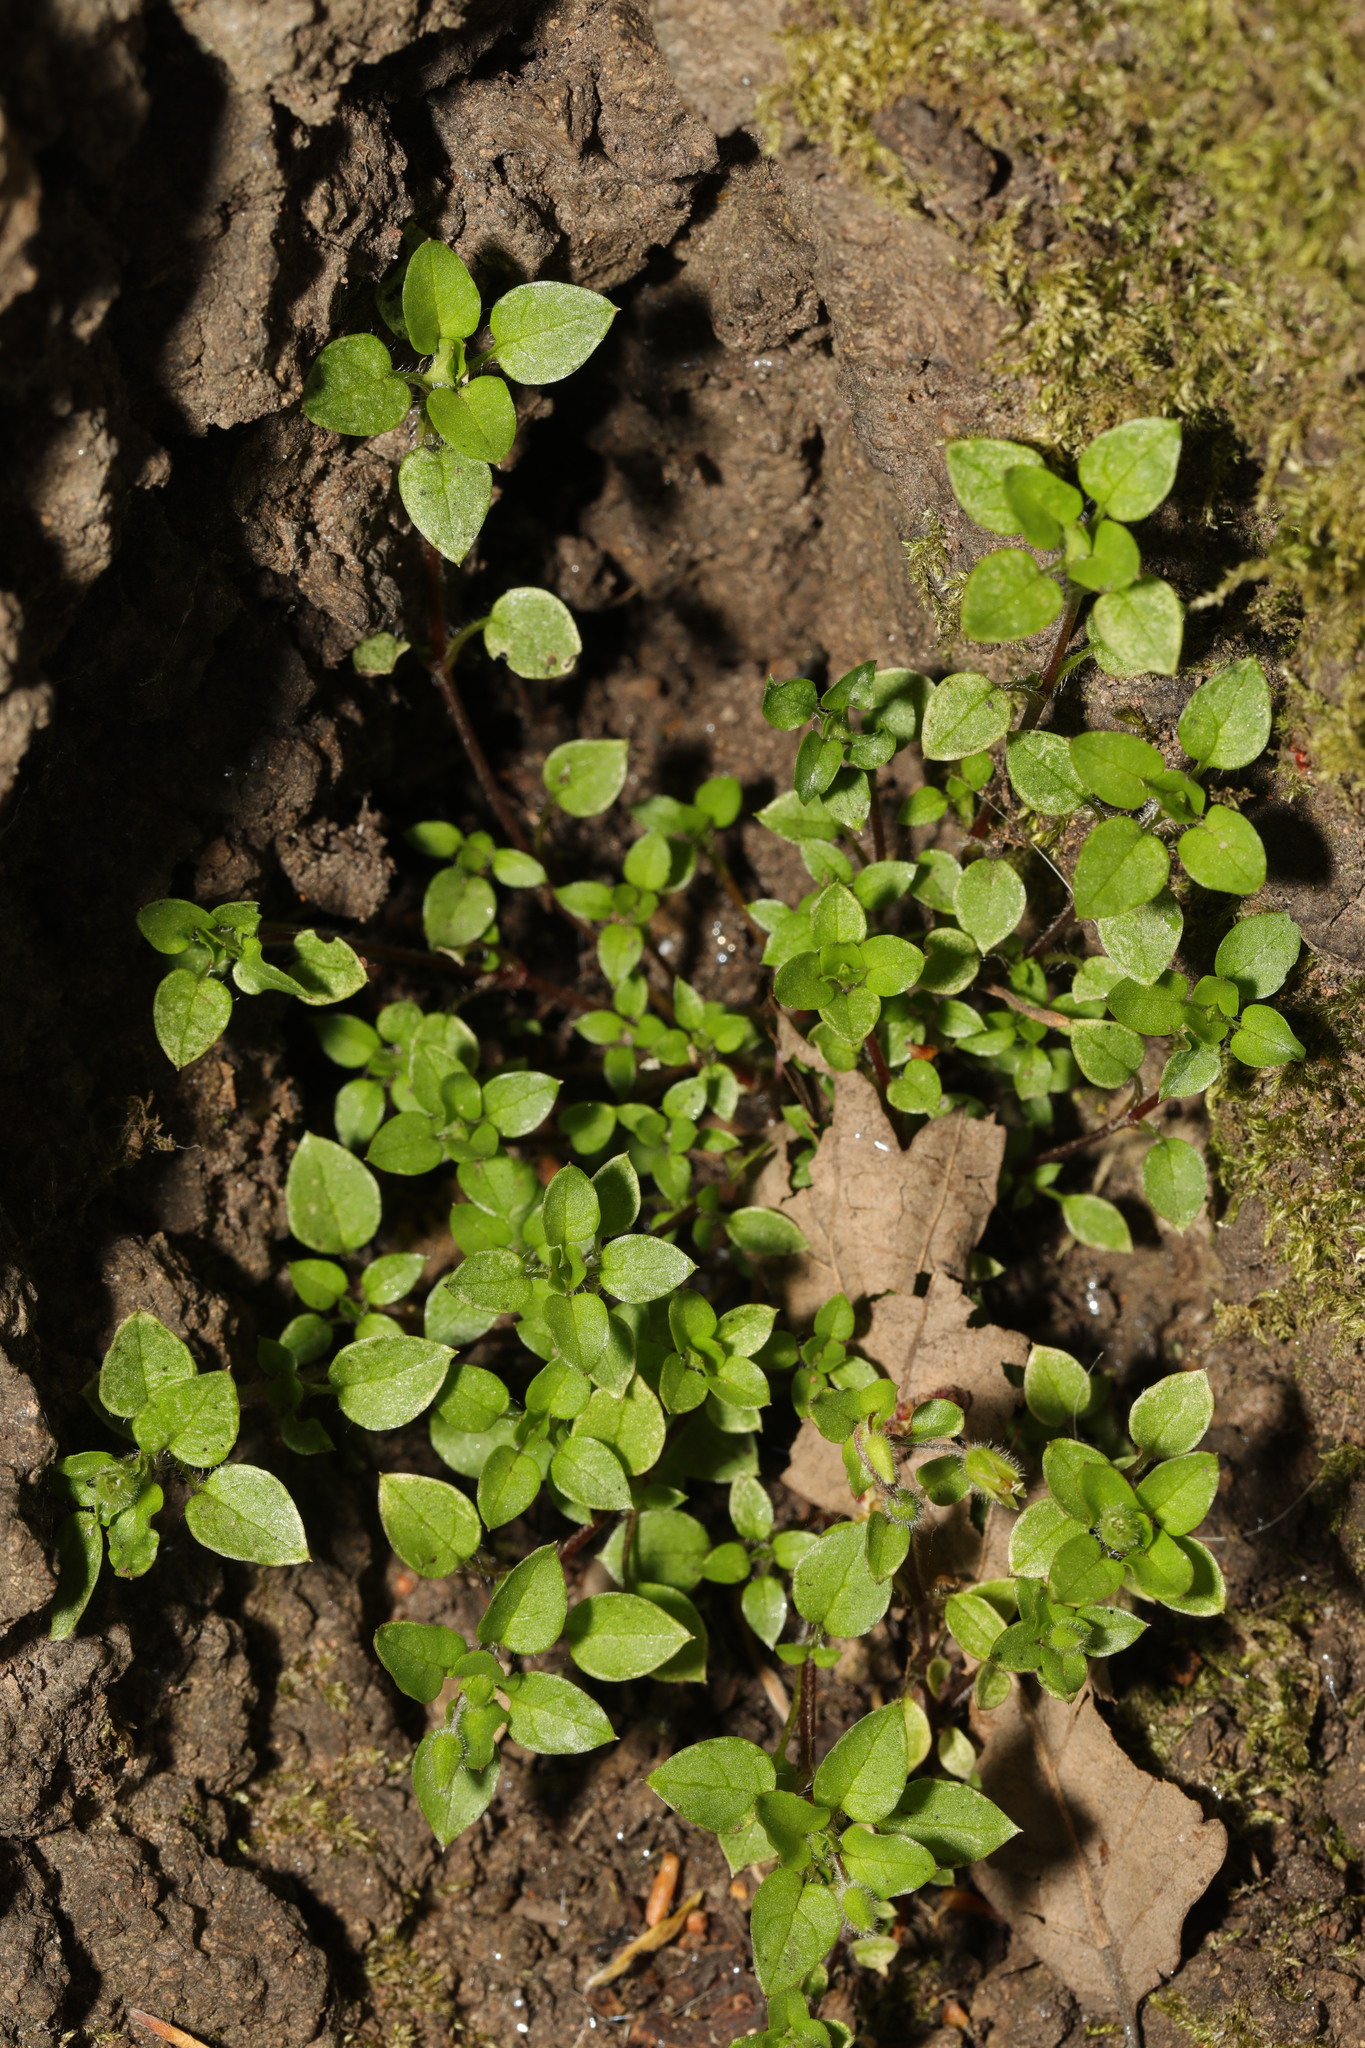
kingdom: Plantae
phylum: Tracheophyta
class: Magnoliopsida
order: Caryophyllales
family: Caryophyllaceae
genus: Stellaria
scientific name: Stellaria media
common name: Common chickweed
